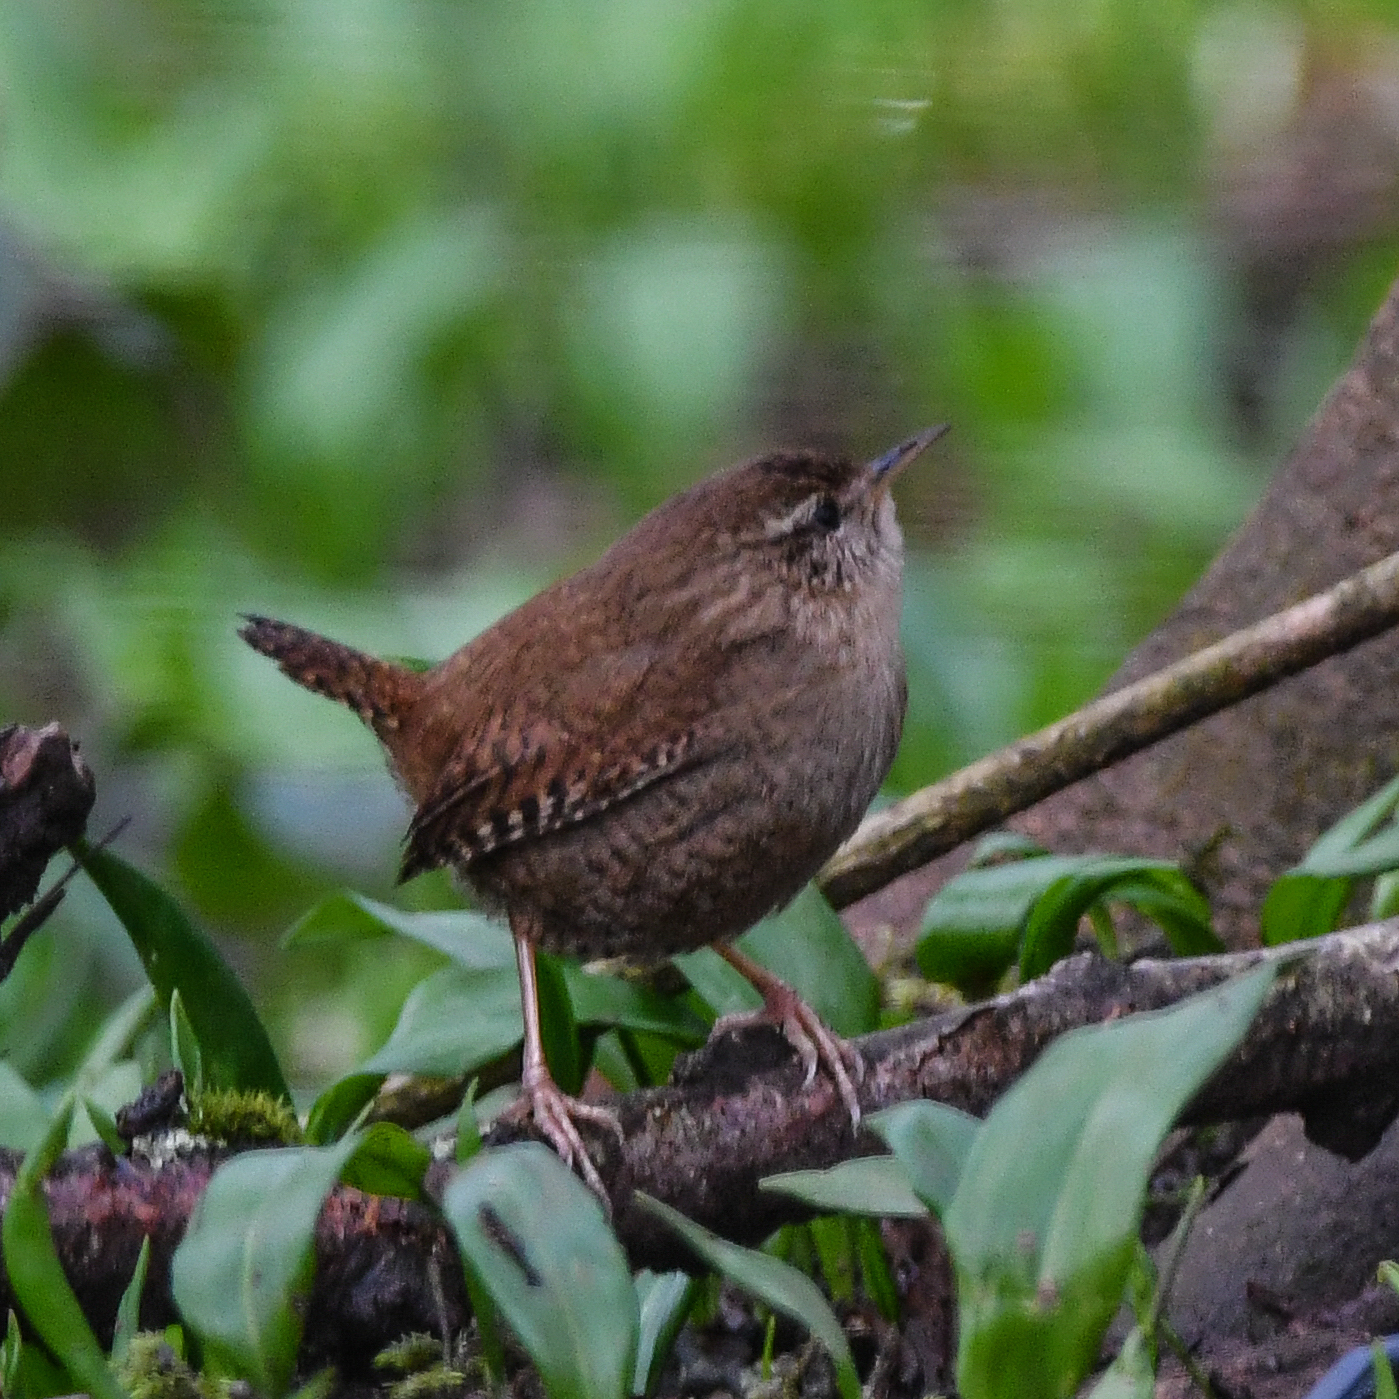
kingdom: Animalia
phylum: Chordata
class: Aves
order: Passeriformes
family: Troglodytidae
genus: Troglodytes
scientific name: Troglodytes troglodytes
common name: Eurasian wren
